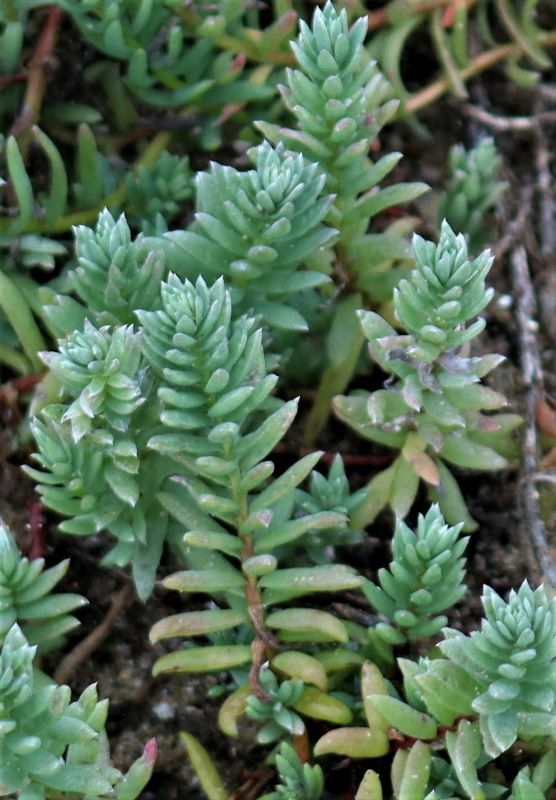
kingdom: Plantae
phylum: Tracheophyta
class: Magnoliopsida
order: Caryophyllales
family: Amaranthaceae
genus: Chenolea
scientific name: Chenolea diffusa
